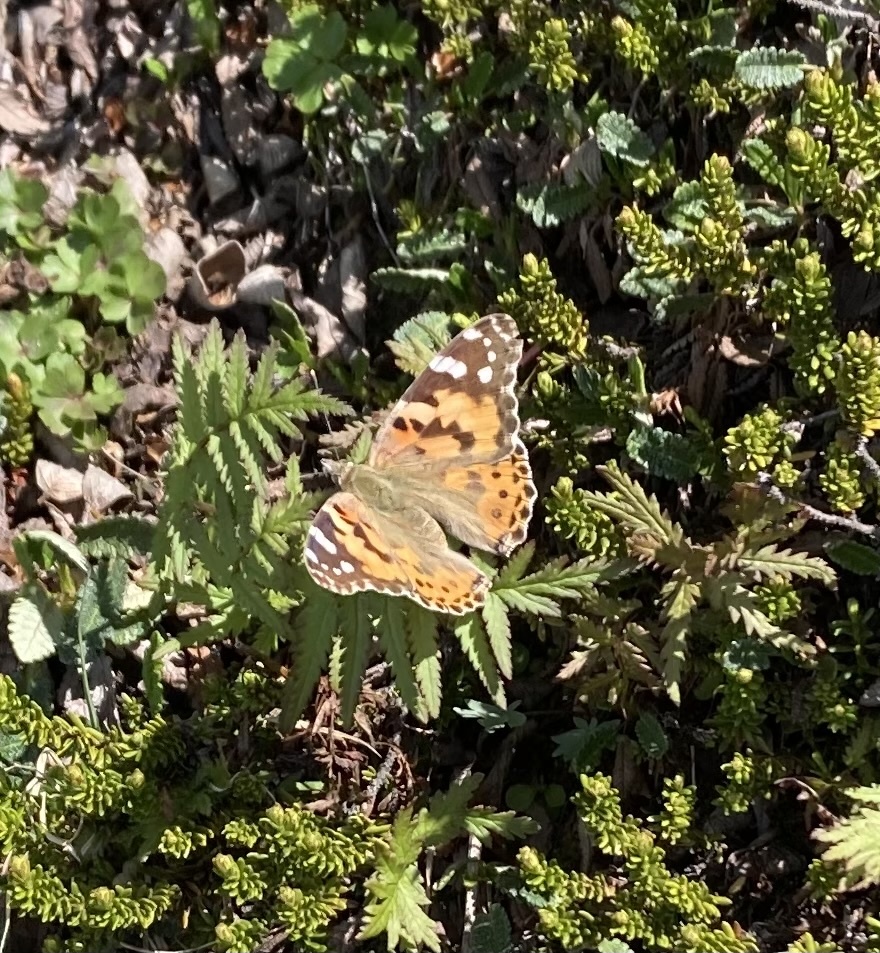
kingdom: Animalia
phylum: Arthropoda
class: Insecta
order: Lepidoptera
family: Nymphalidae
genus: Vanessa
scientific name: Vanessa cardui
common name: Painted lady
